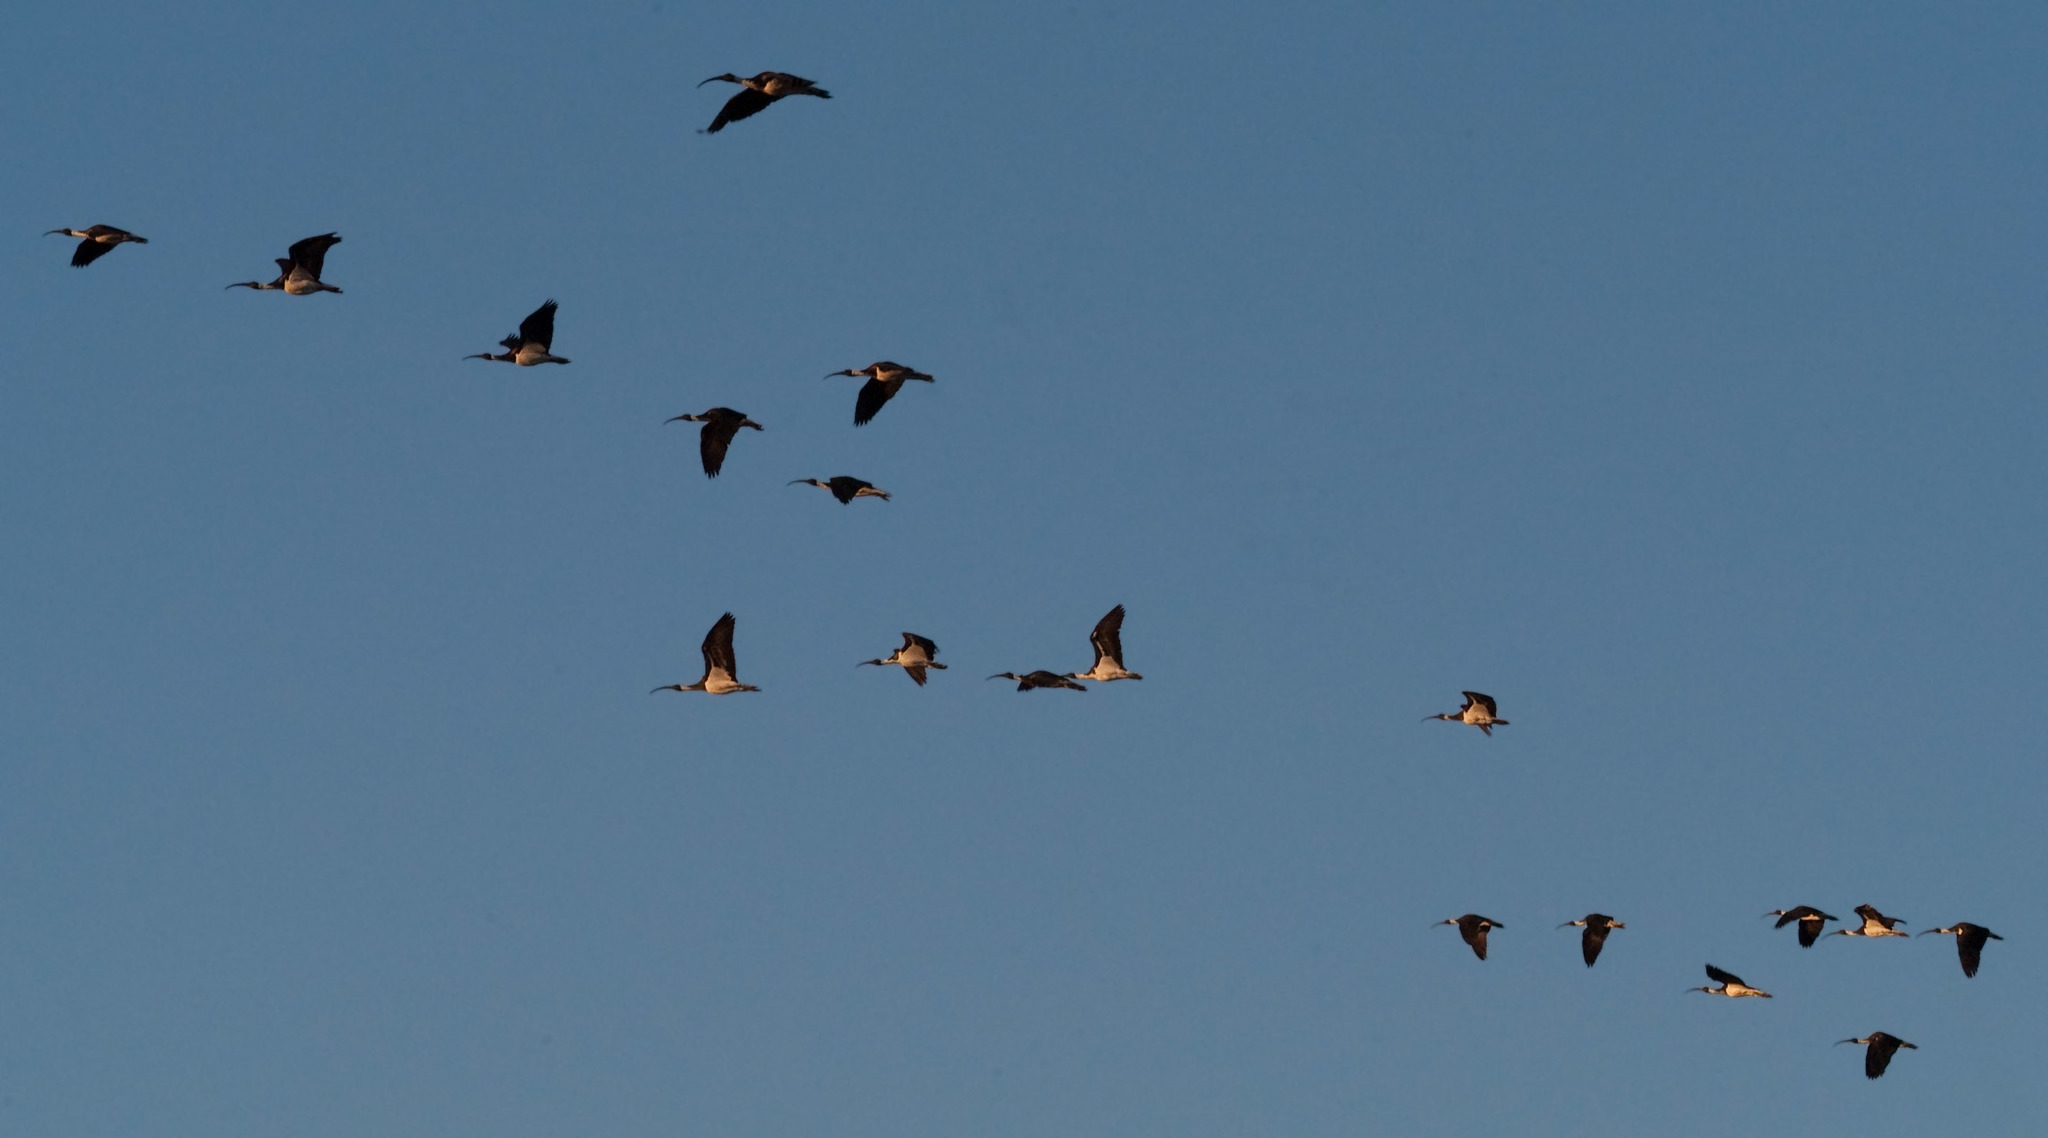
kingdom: Animalia
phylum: Chordata
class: Aves
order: Pelecaniformes
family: Threskiornithidae
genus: Threskiornis
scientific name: Threskiornis spinicollis
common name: Straw-necked ibis
